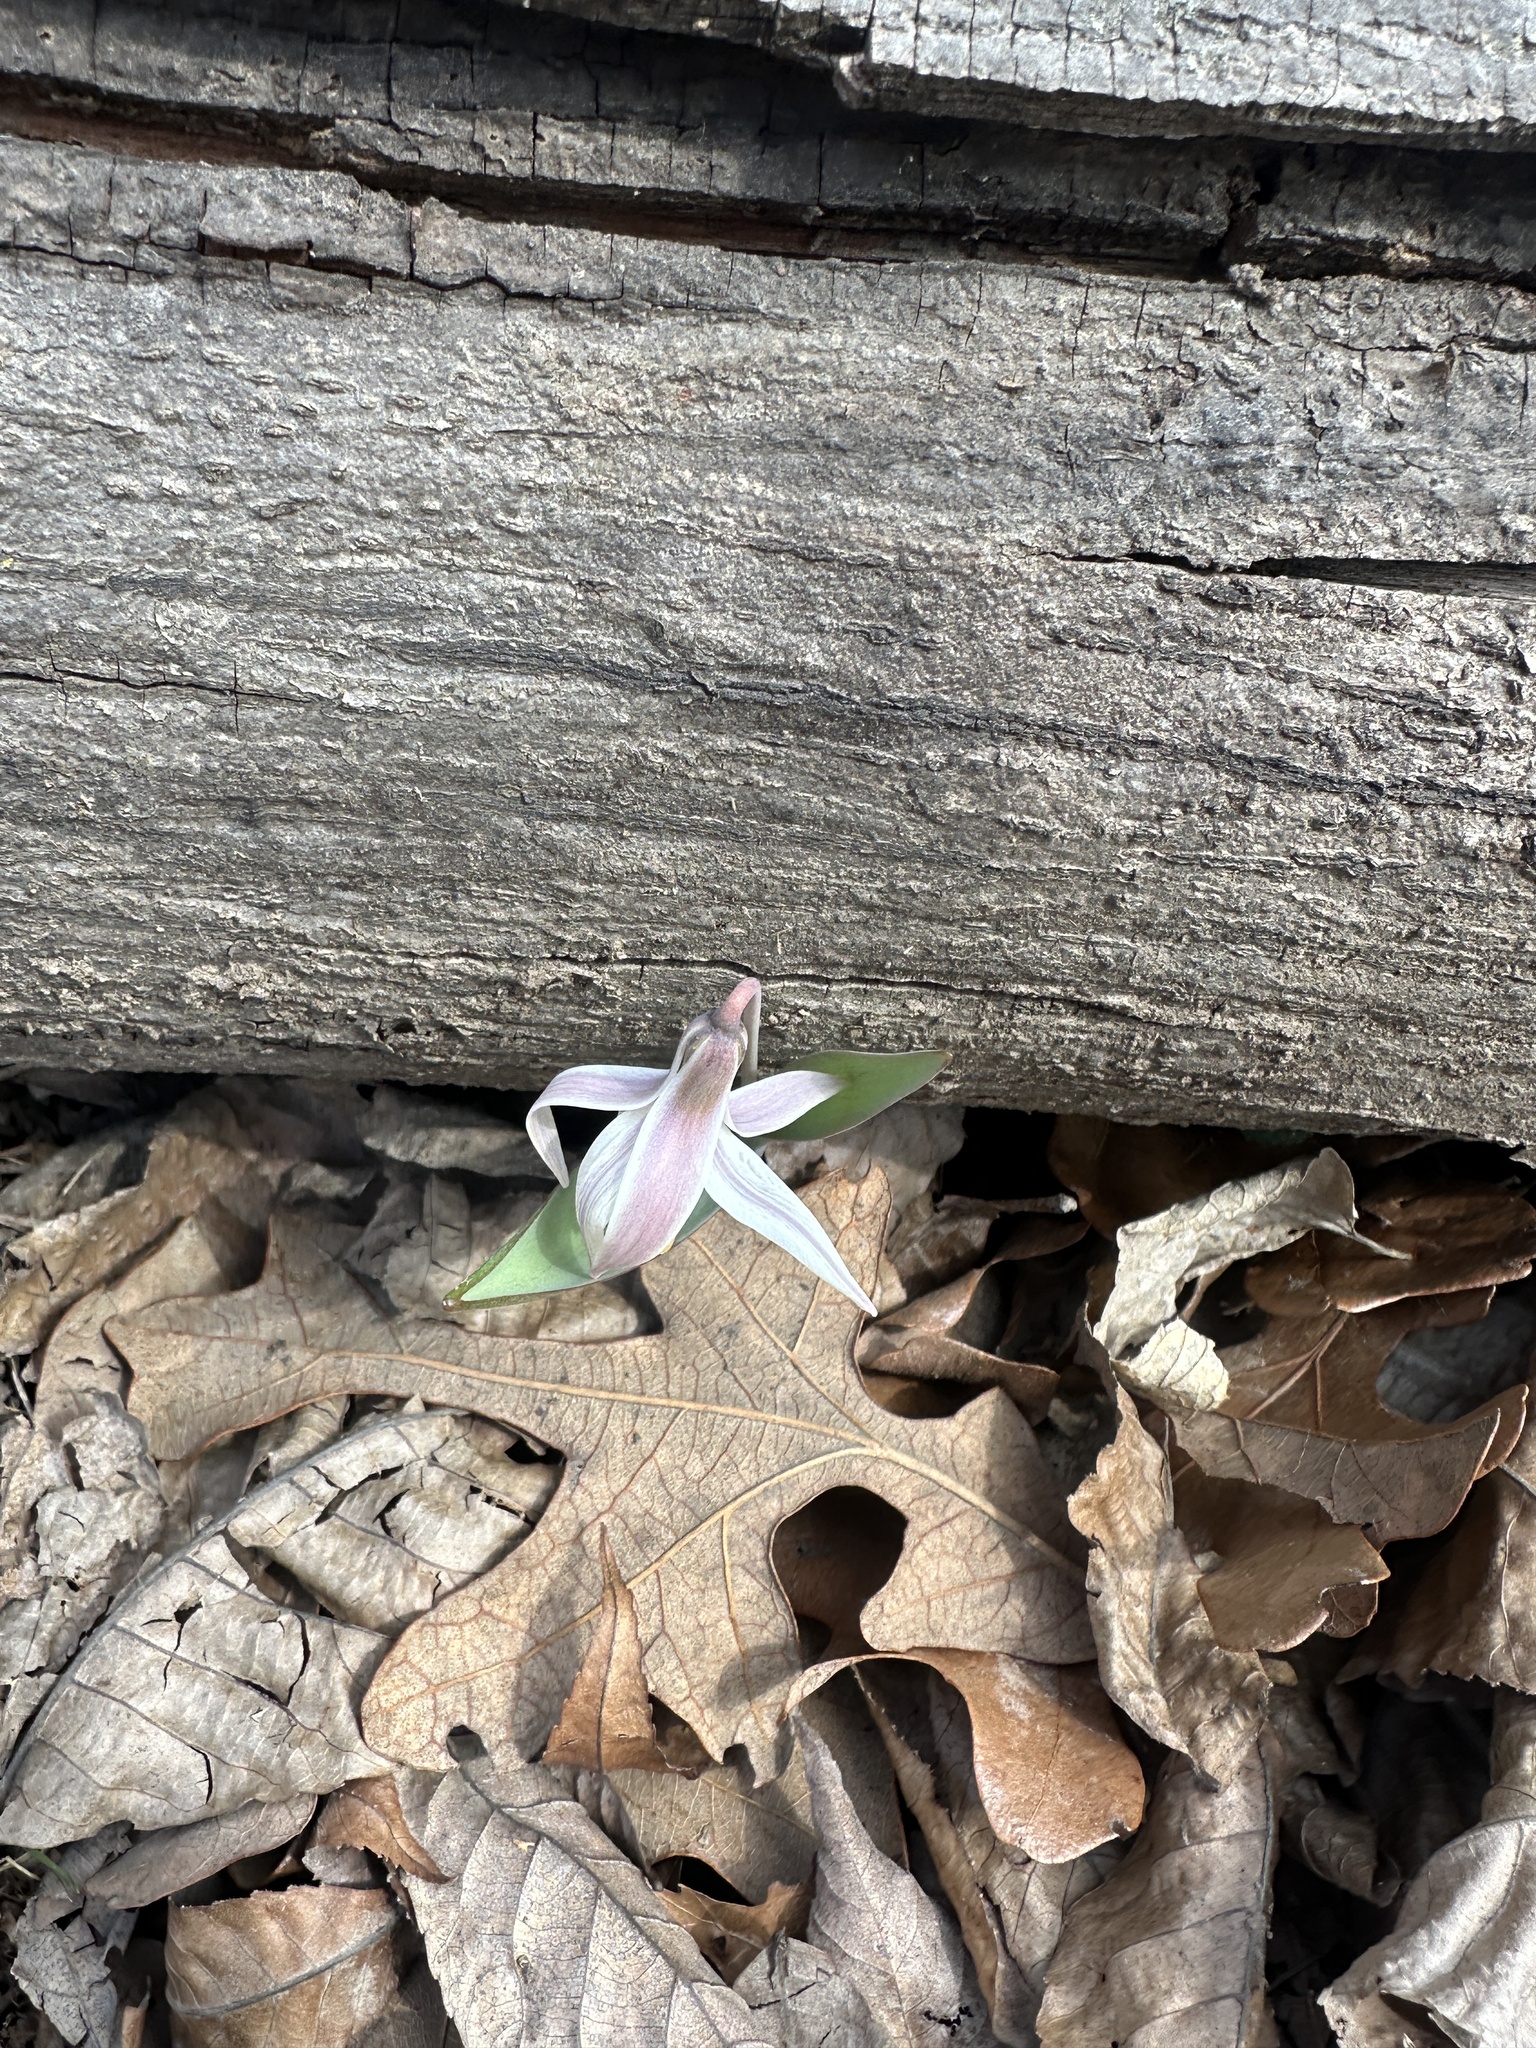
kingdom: Plantae
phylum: Tracheophyta
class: Liliopsida
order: Liliales
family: Liliaceae
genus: Erythronium
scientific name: Erythronium mesochoreum
